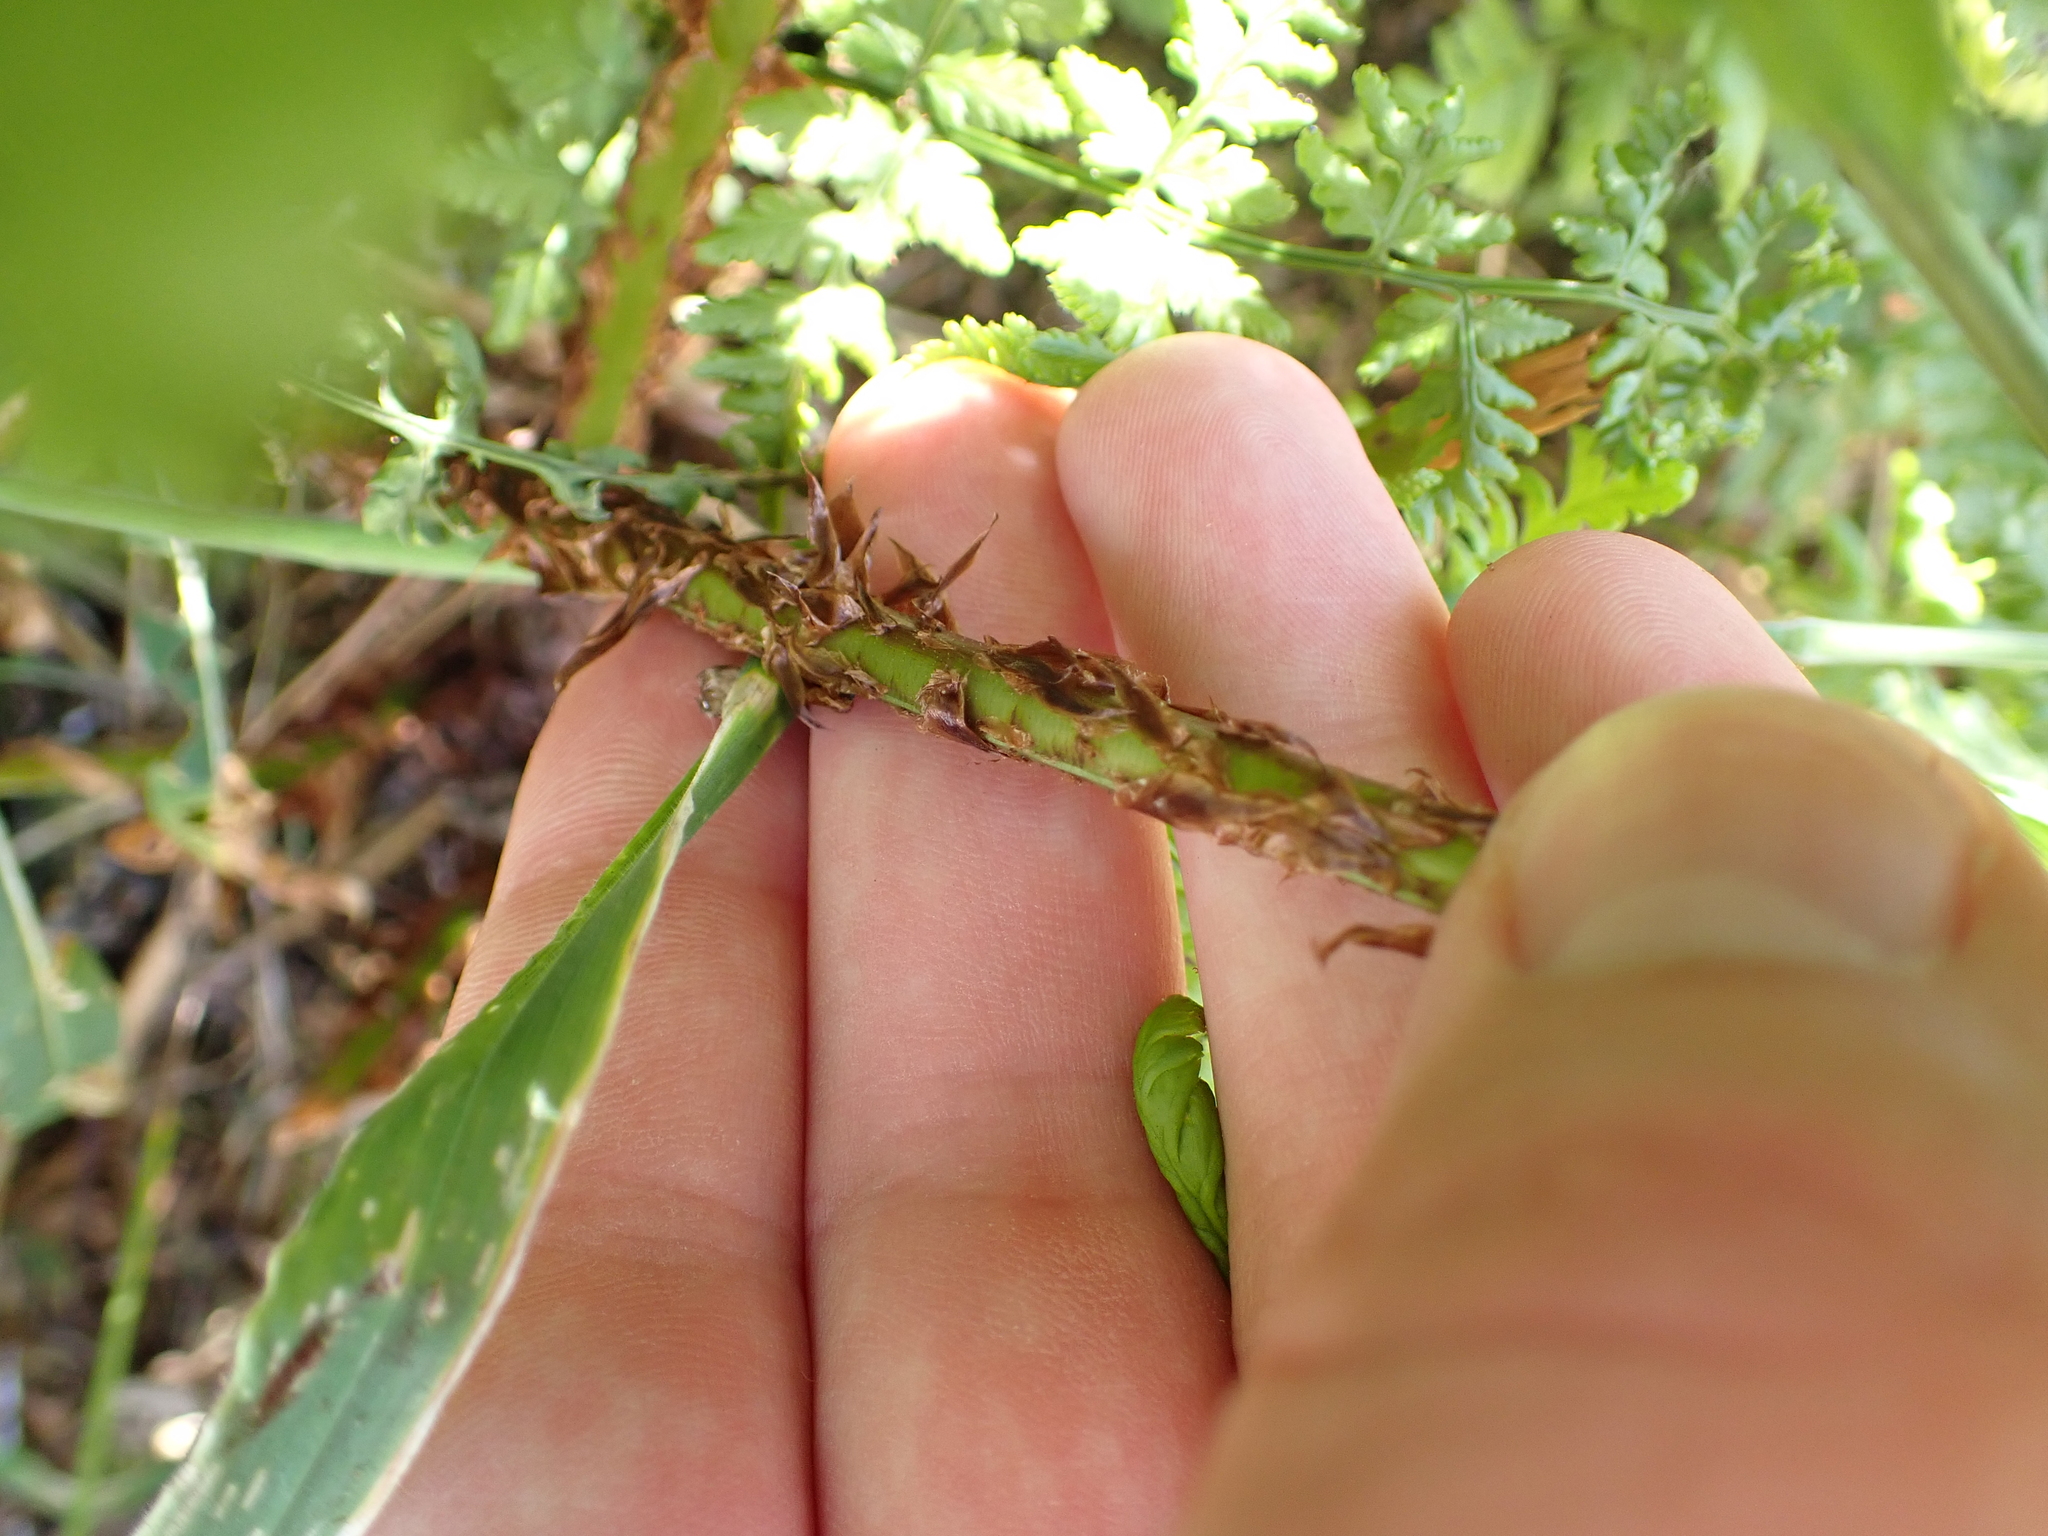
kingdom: Plantae
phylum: Tracheophyta
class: Polypodiopsida
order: Polypodiales
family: Dryopteridaceae
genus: Dryopteris
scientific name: Dryopteris dilatata
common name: Broad buckler-fern
